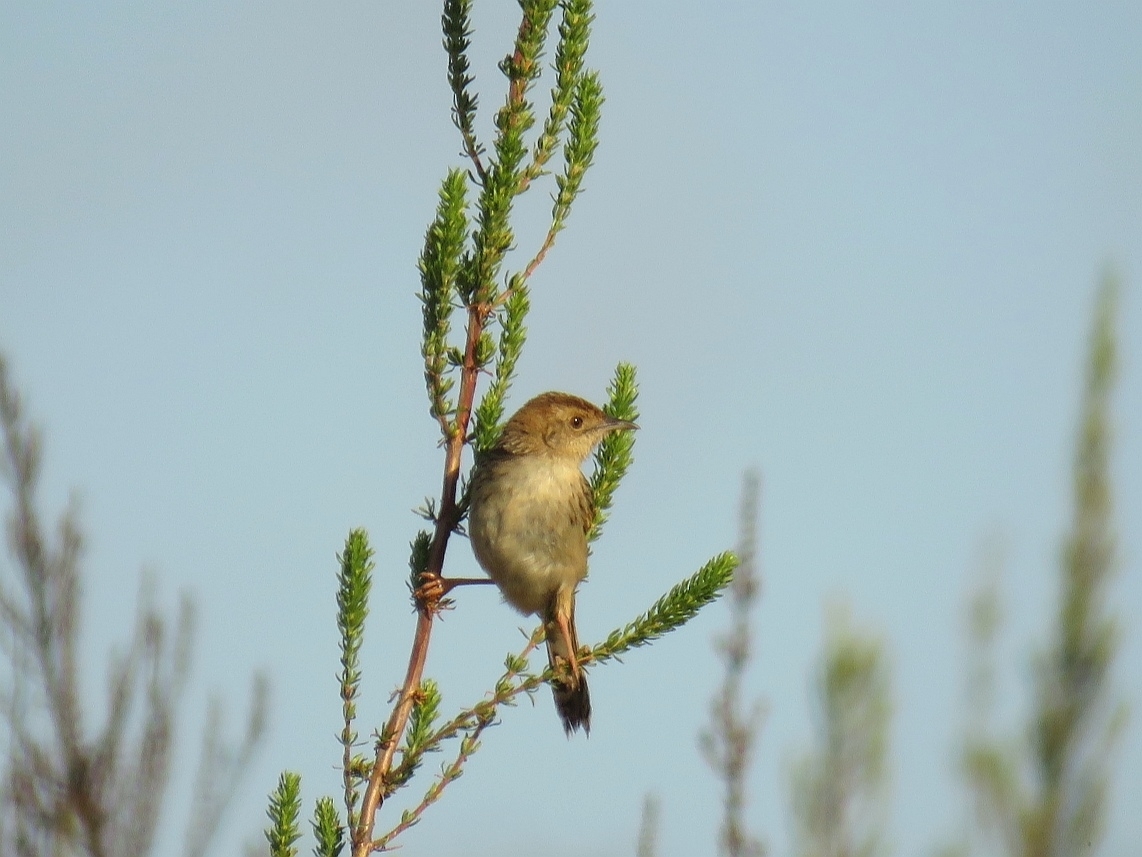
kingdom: Animalia
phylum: Chordata
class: Aves
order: Passeriformes
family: Cisticolidae
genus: Cisticola
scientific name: Cisticola lais
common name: Wailing cisticola
